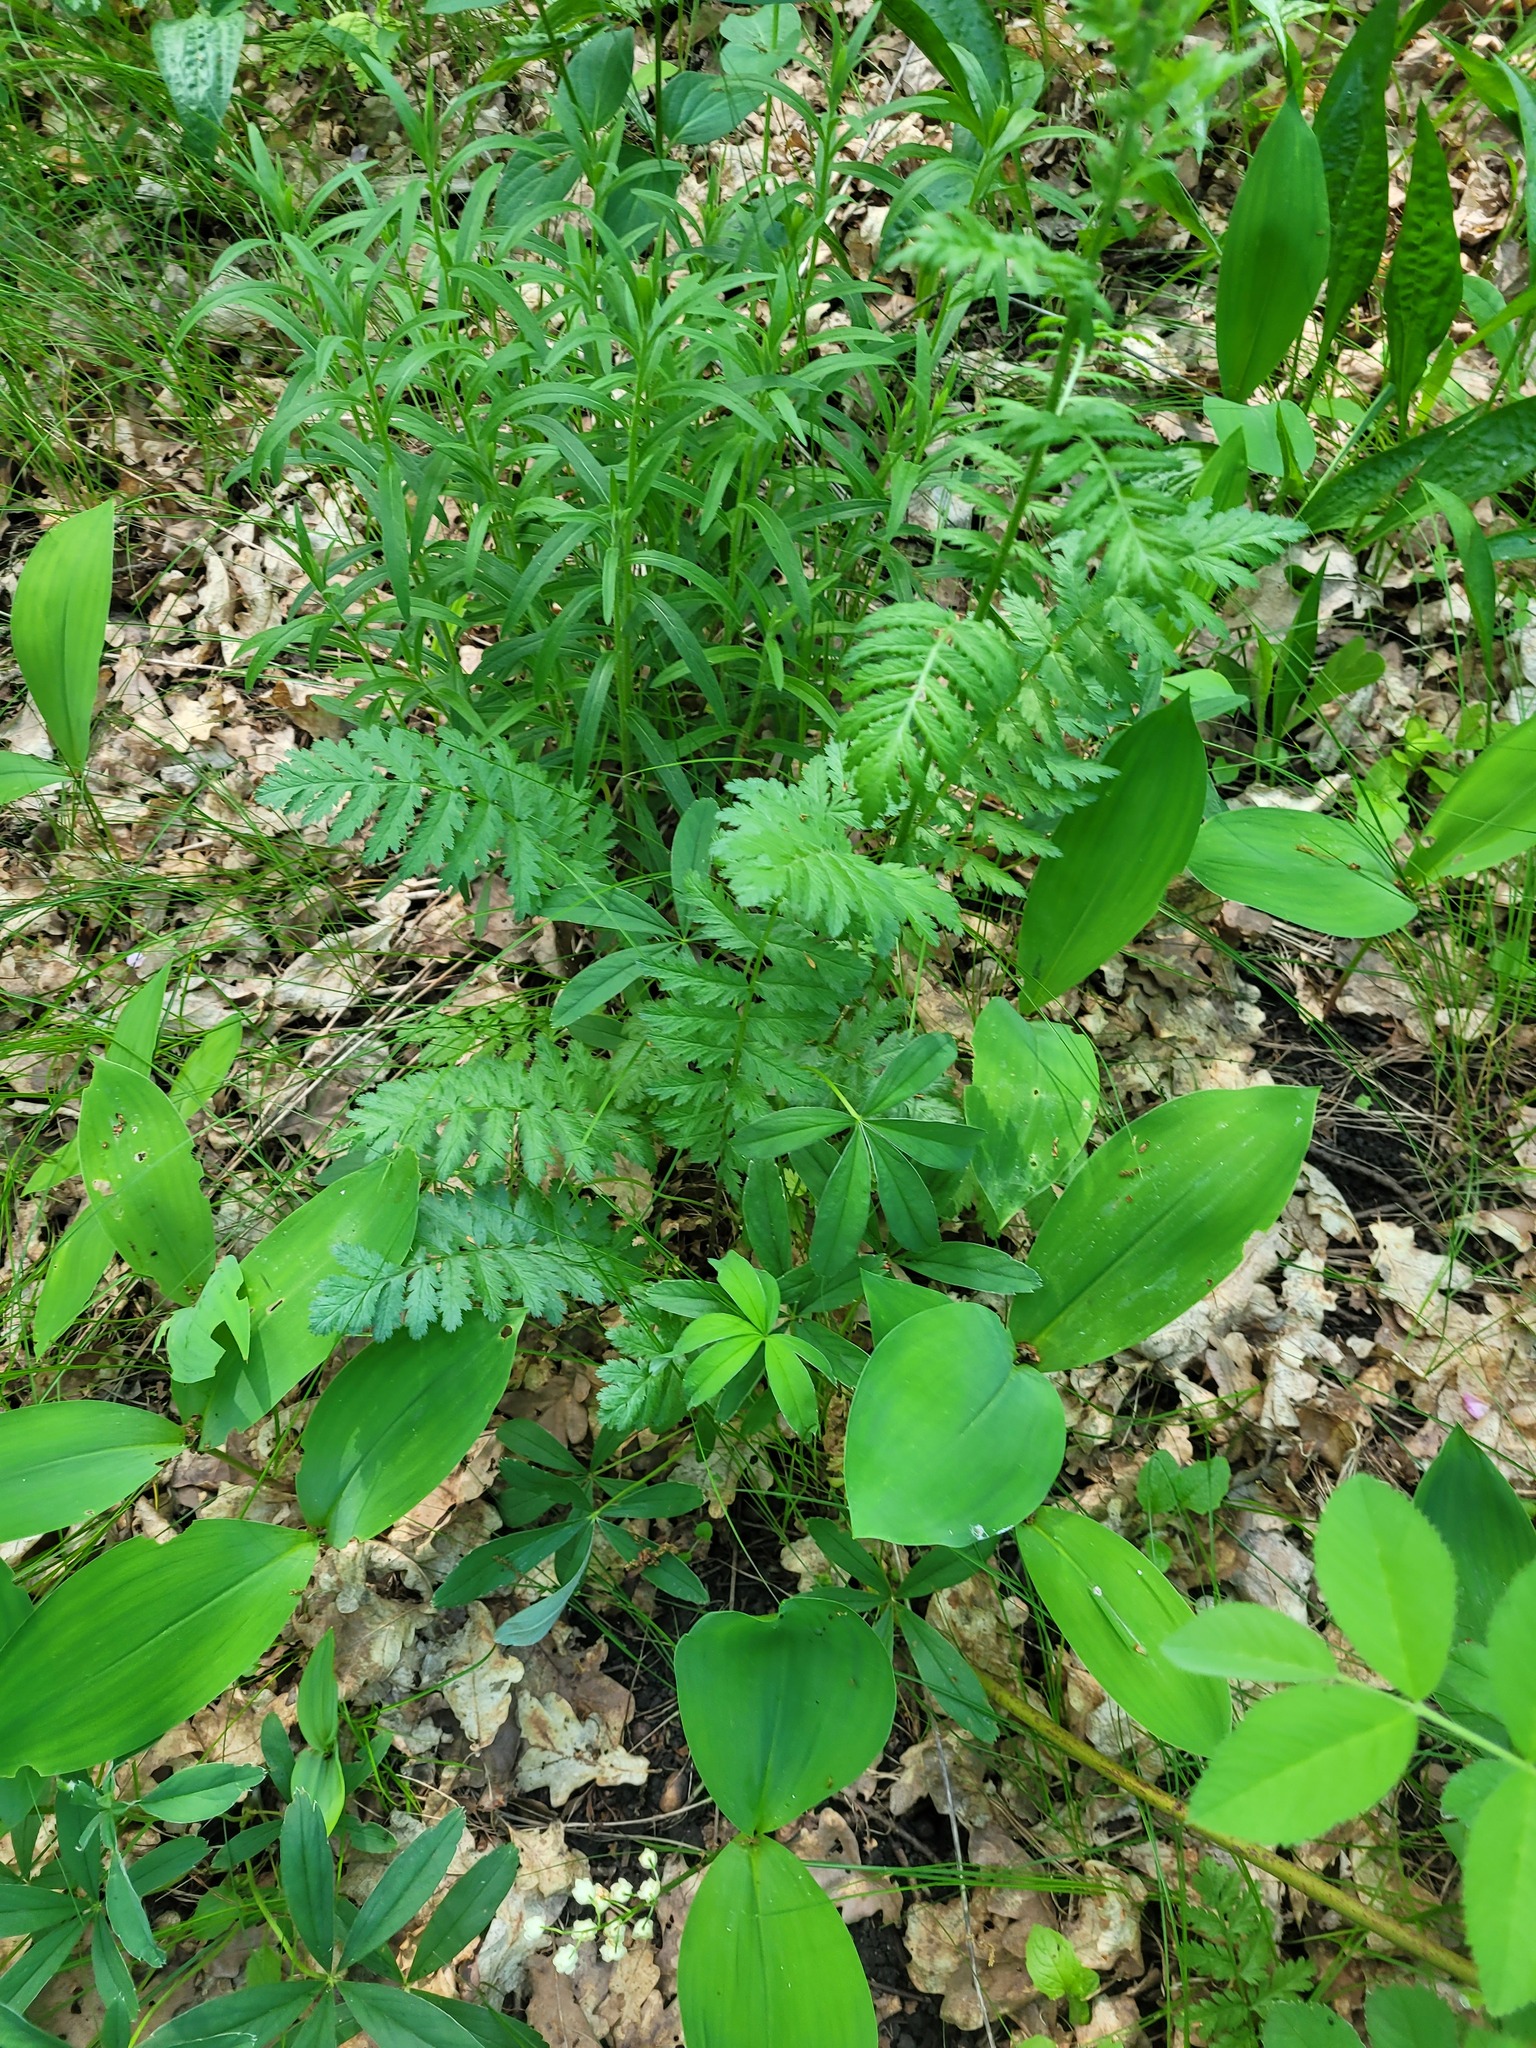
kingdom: Plantae
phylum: Tracheophyta
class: Magnoliopsida
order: Asterales
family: Asteraceae
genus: Tanacetum
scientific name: Tanacetum corymbosum
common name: Scentless feverfew
